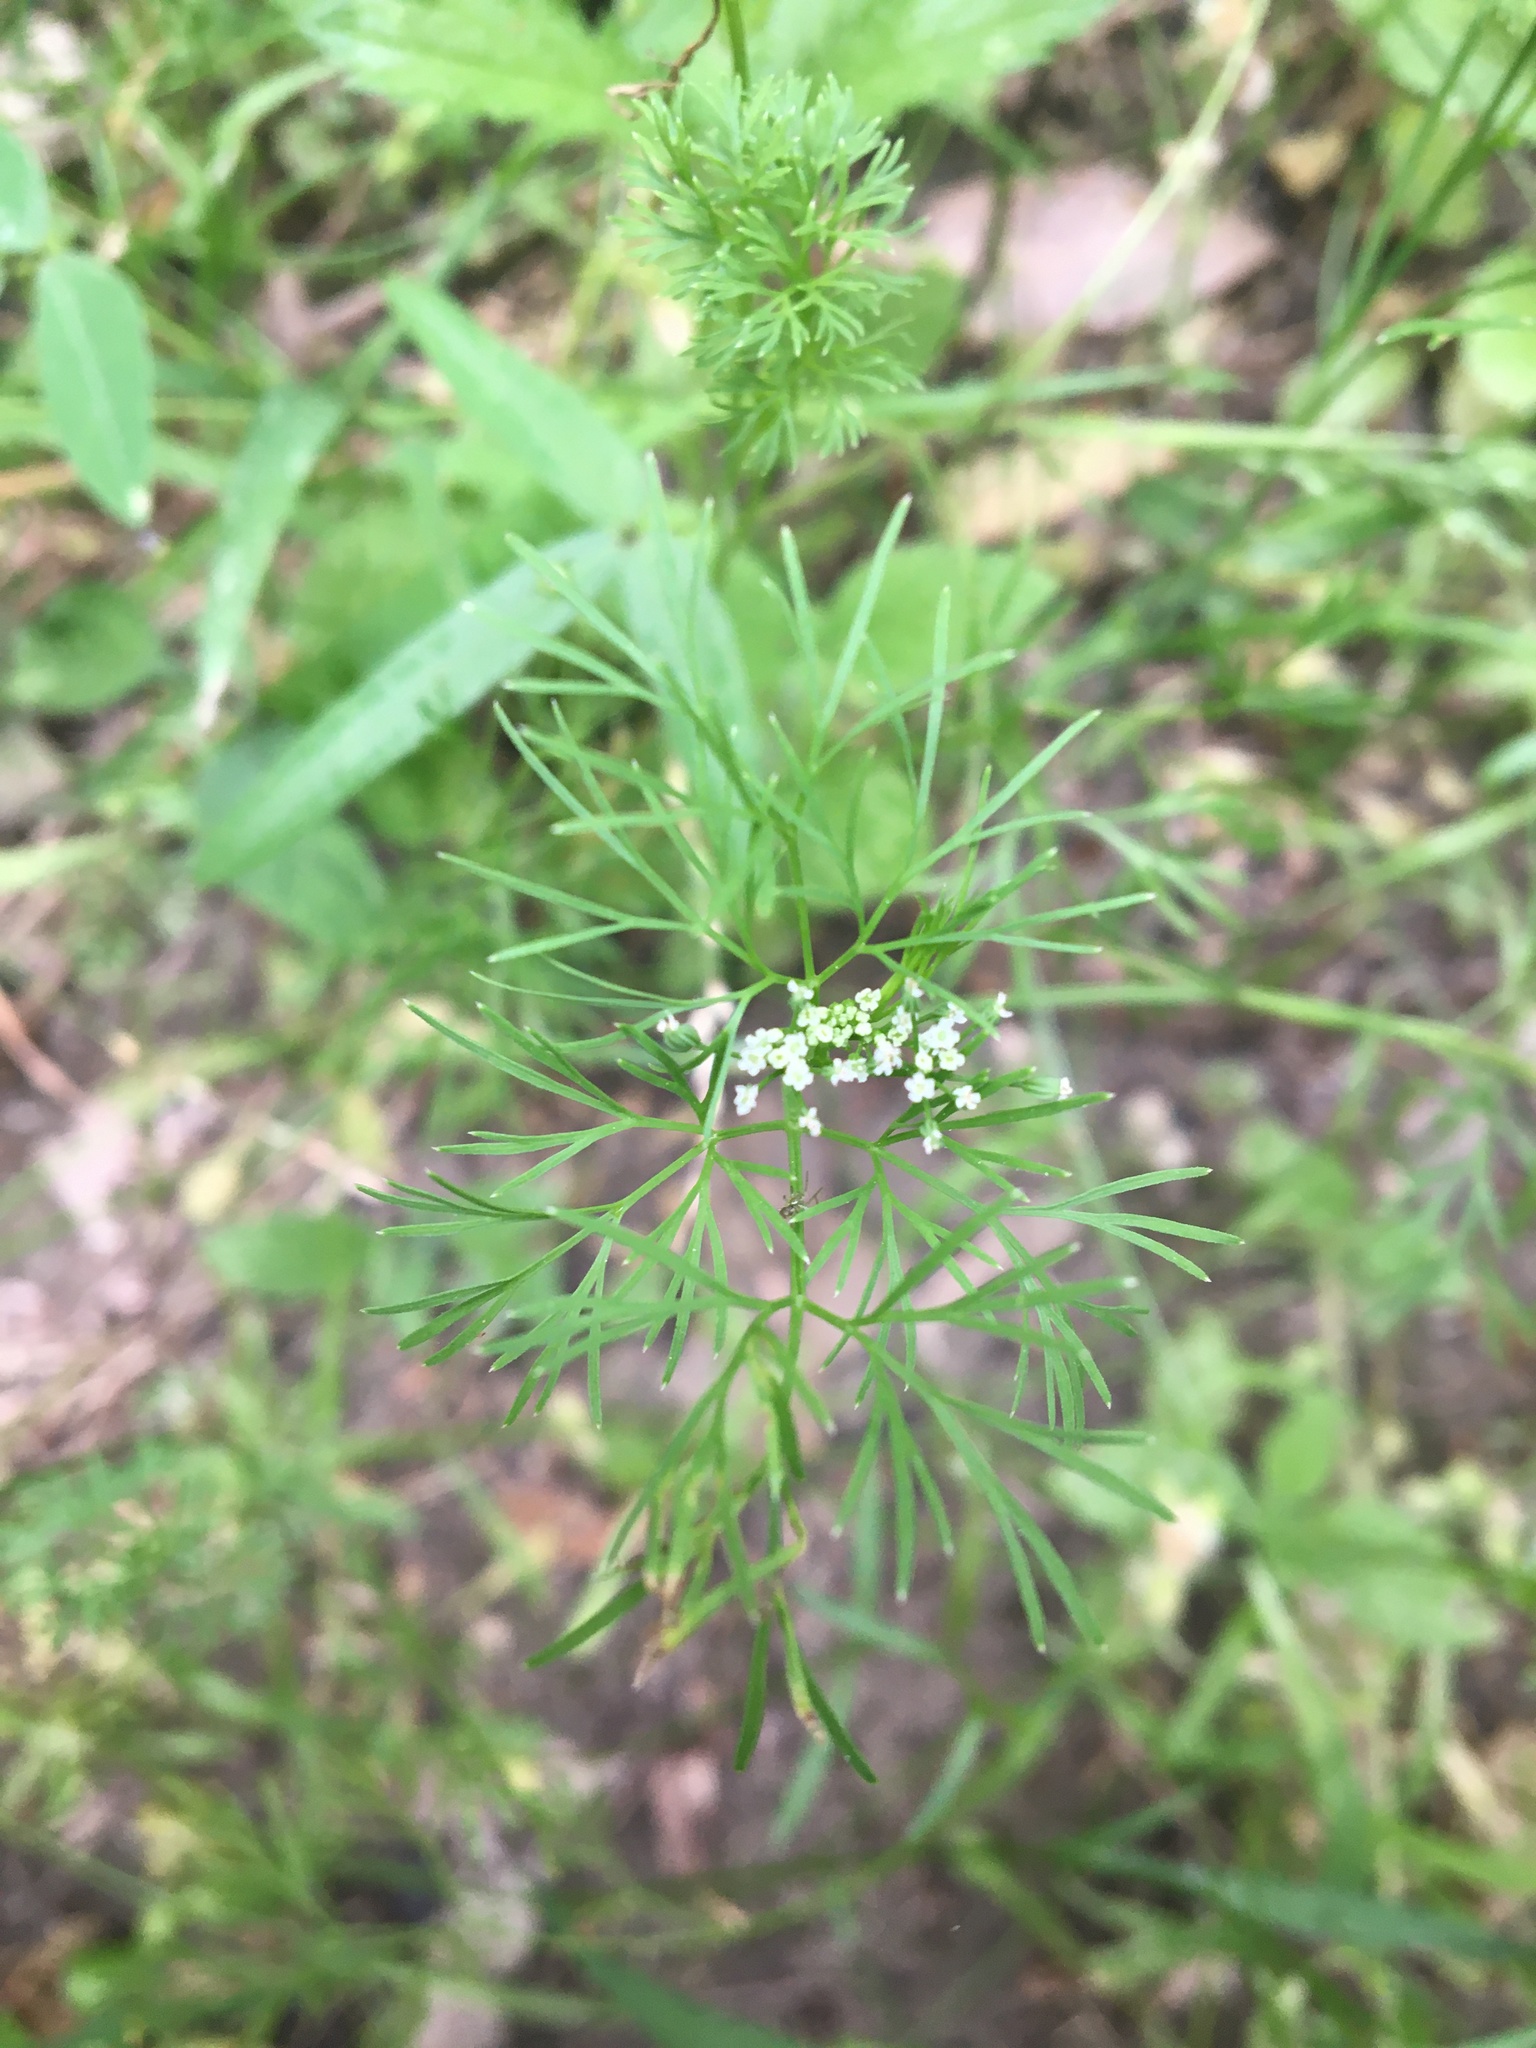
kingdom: Plantae
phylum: Tracheophyta
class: Magnoliopsida
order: Apiales
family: Apiaceae
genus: Cyclospermum
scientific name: Cyclospermum leptophyllum
